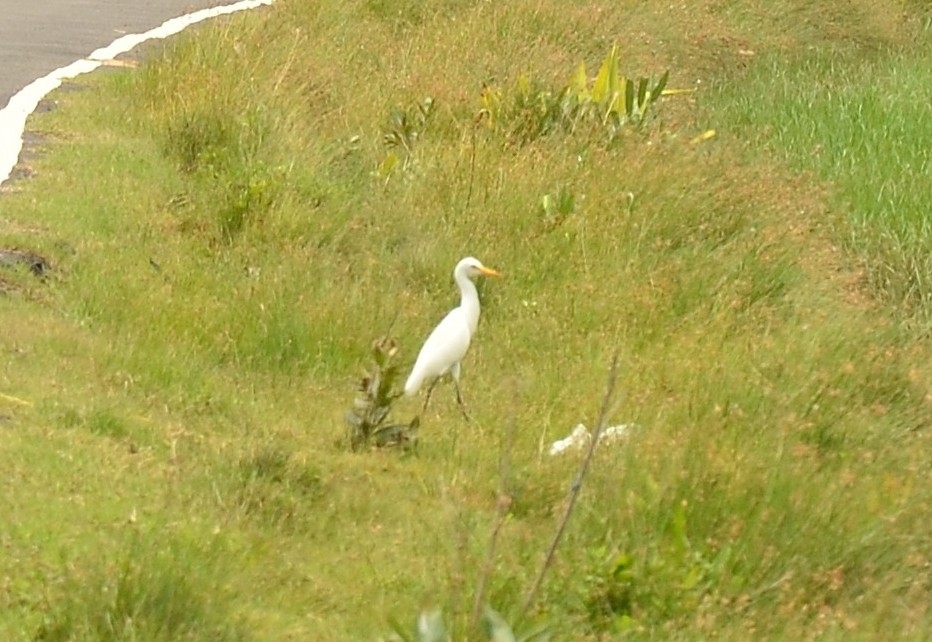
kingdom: Animalia
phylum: Chordata
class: Aves
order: Pelecaniformes
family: Ardeidae
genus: Bubulcus
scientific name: Bubulcus coromandus
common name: Eastern cattle egret
